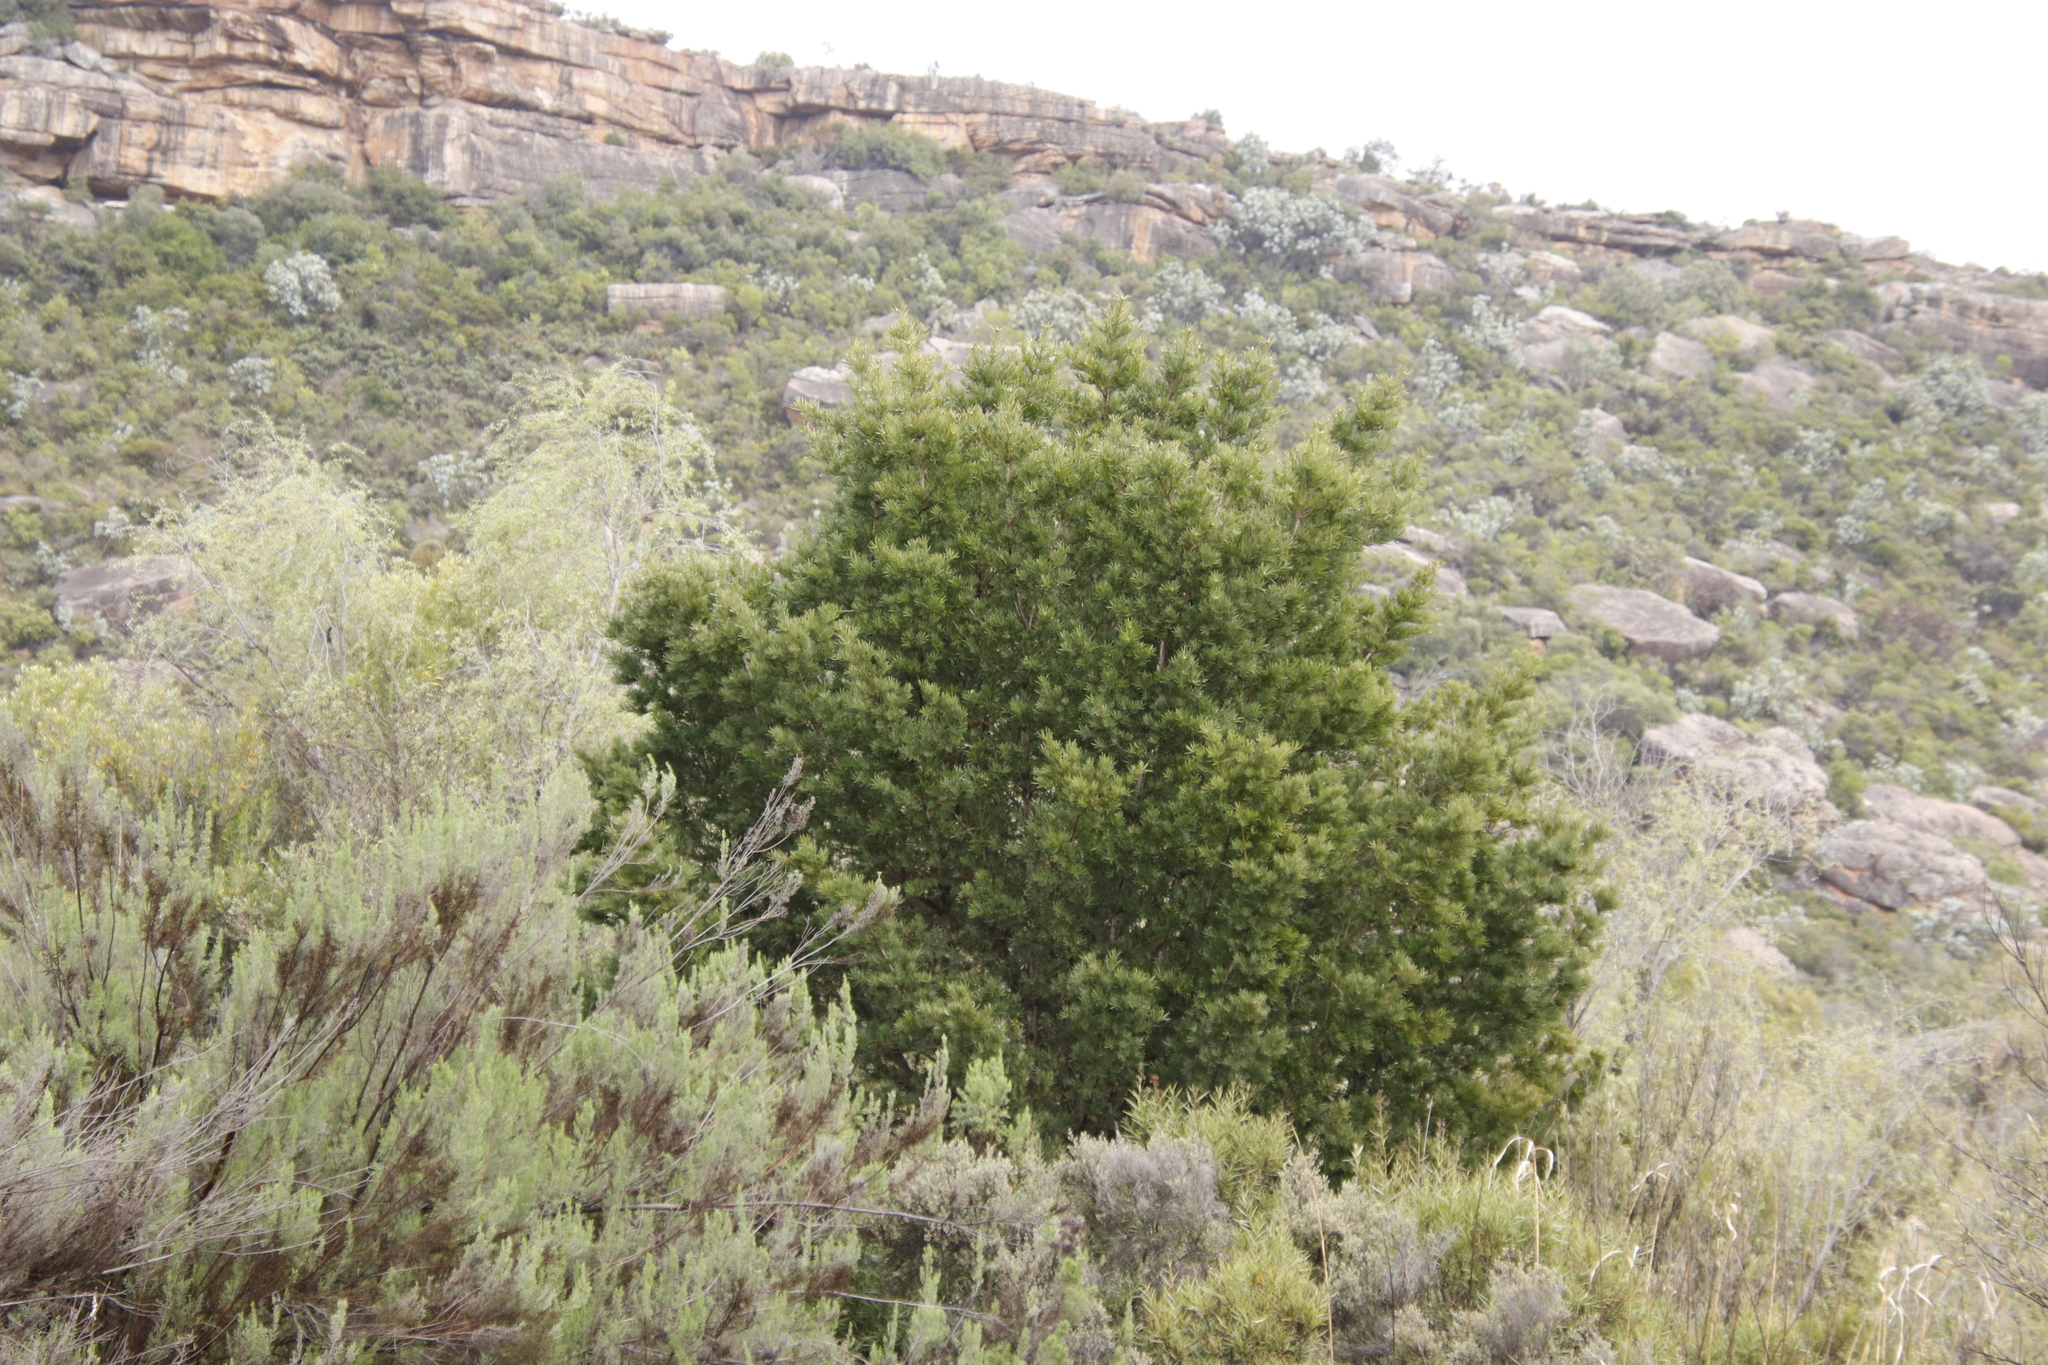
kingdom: Plantae
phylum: Tracheophyta
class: Pinopsida
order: Pinales
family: Podocarpaceae
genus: Podocarpus
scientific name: Podocarpus elongatus
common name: Breede river yellowwood
